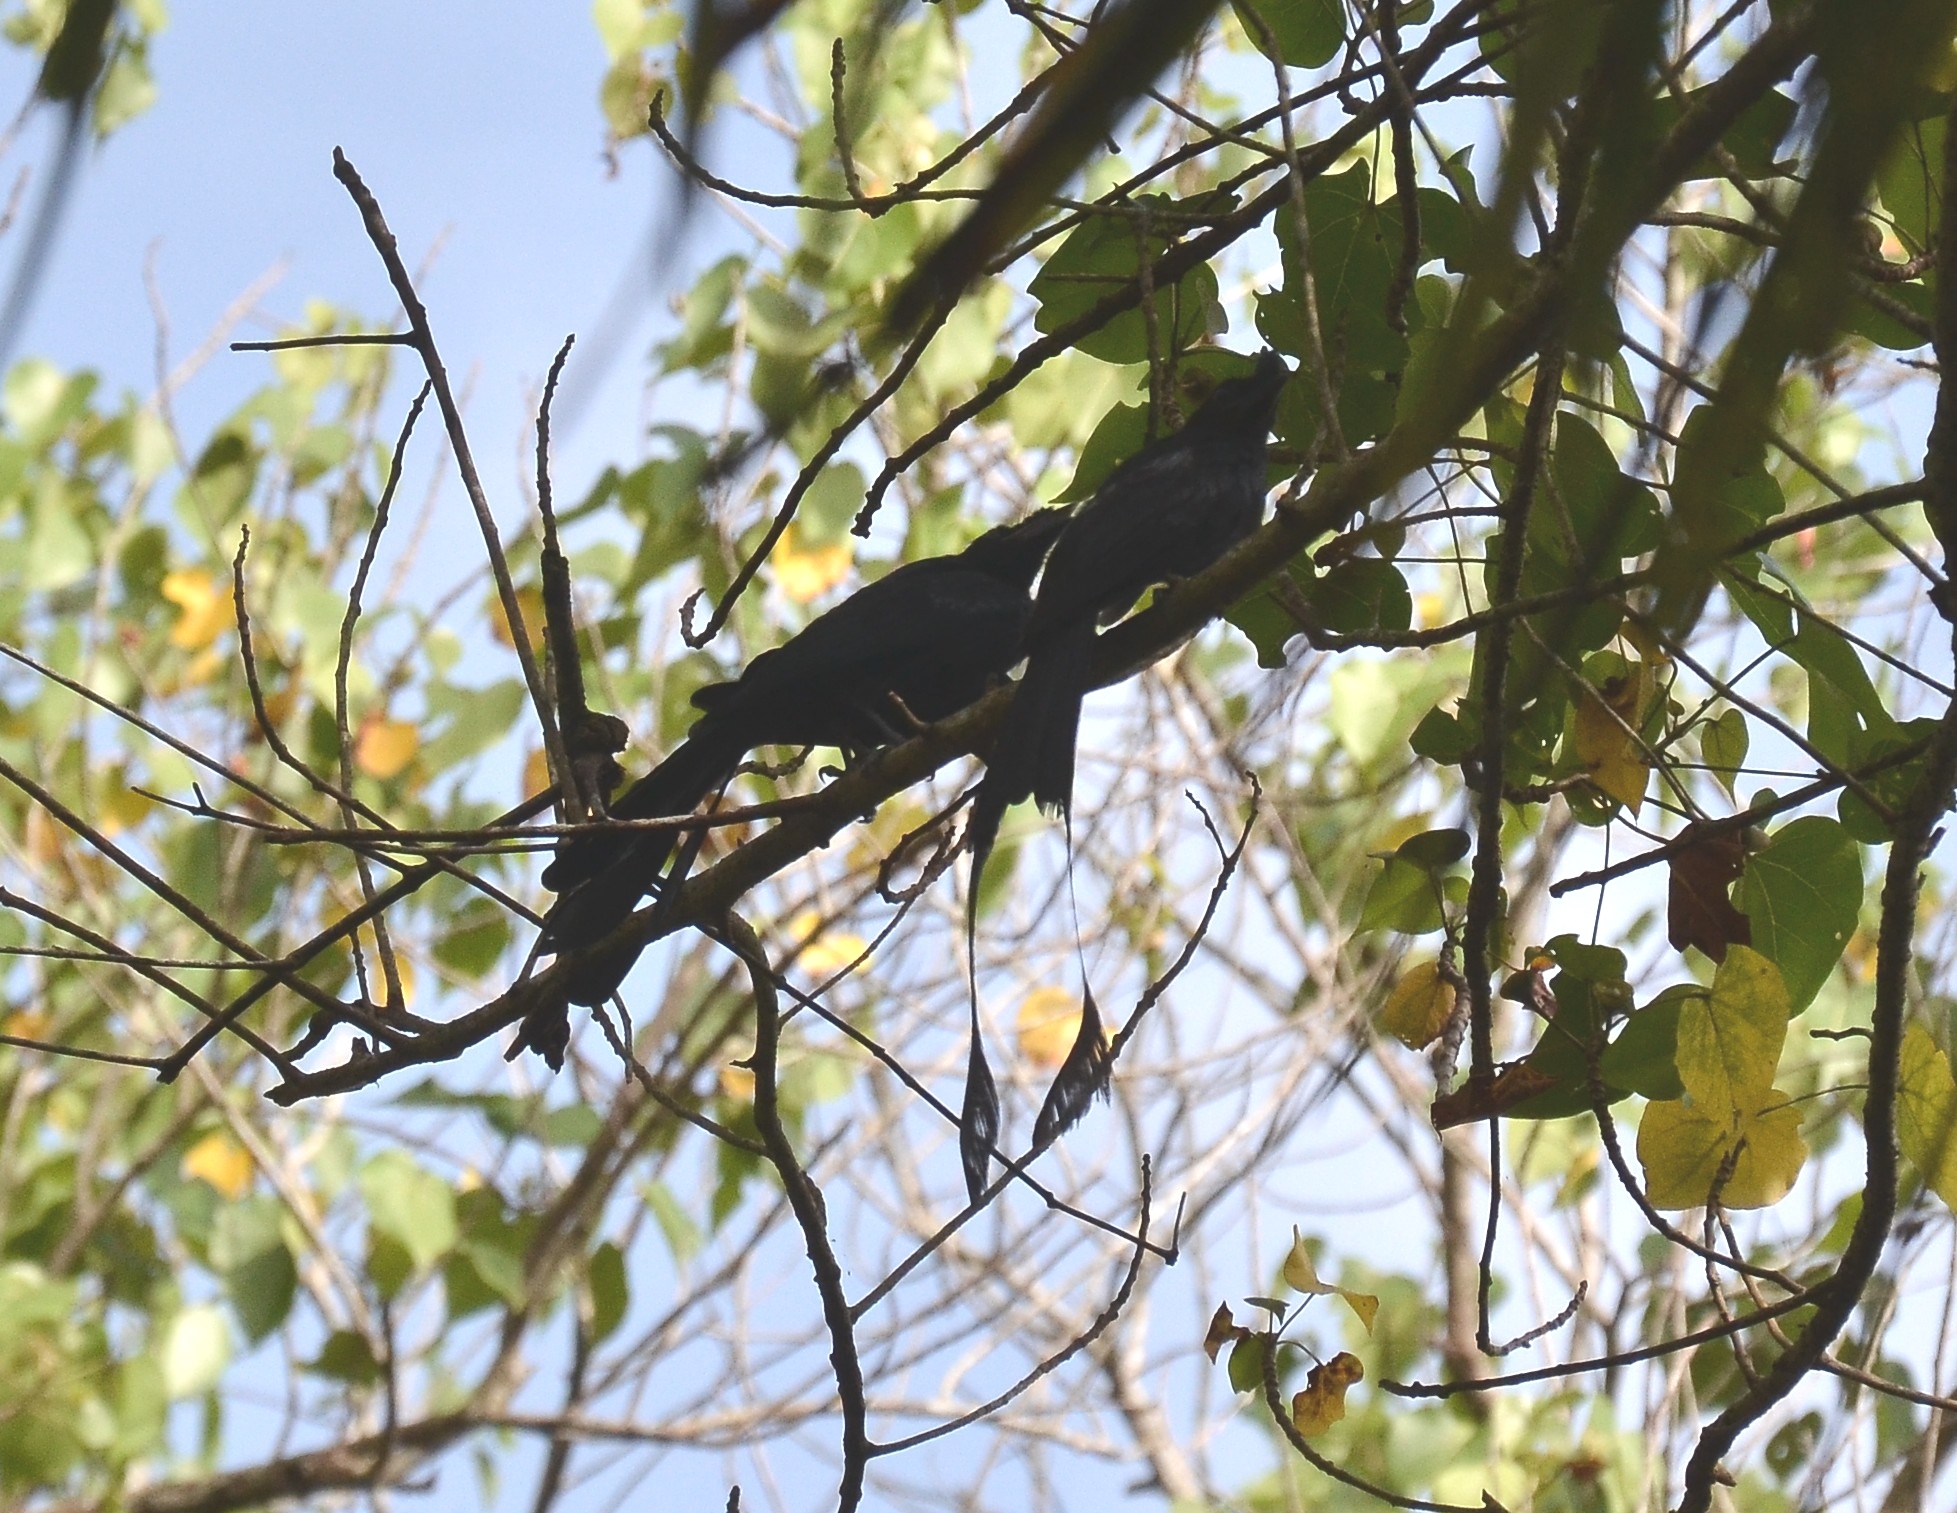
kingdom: Animalia
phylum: Chordata
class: Aves
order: Passeriformes
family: Dicruridae
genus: Dicrurus
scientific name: Dicrurus paradiseus
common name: Greater racket-tailed drongo
